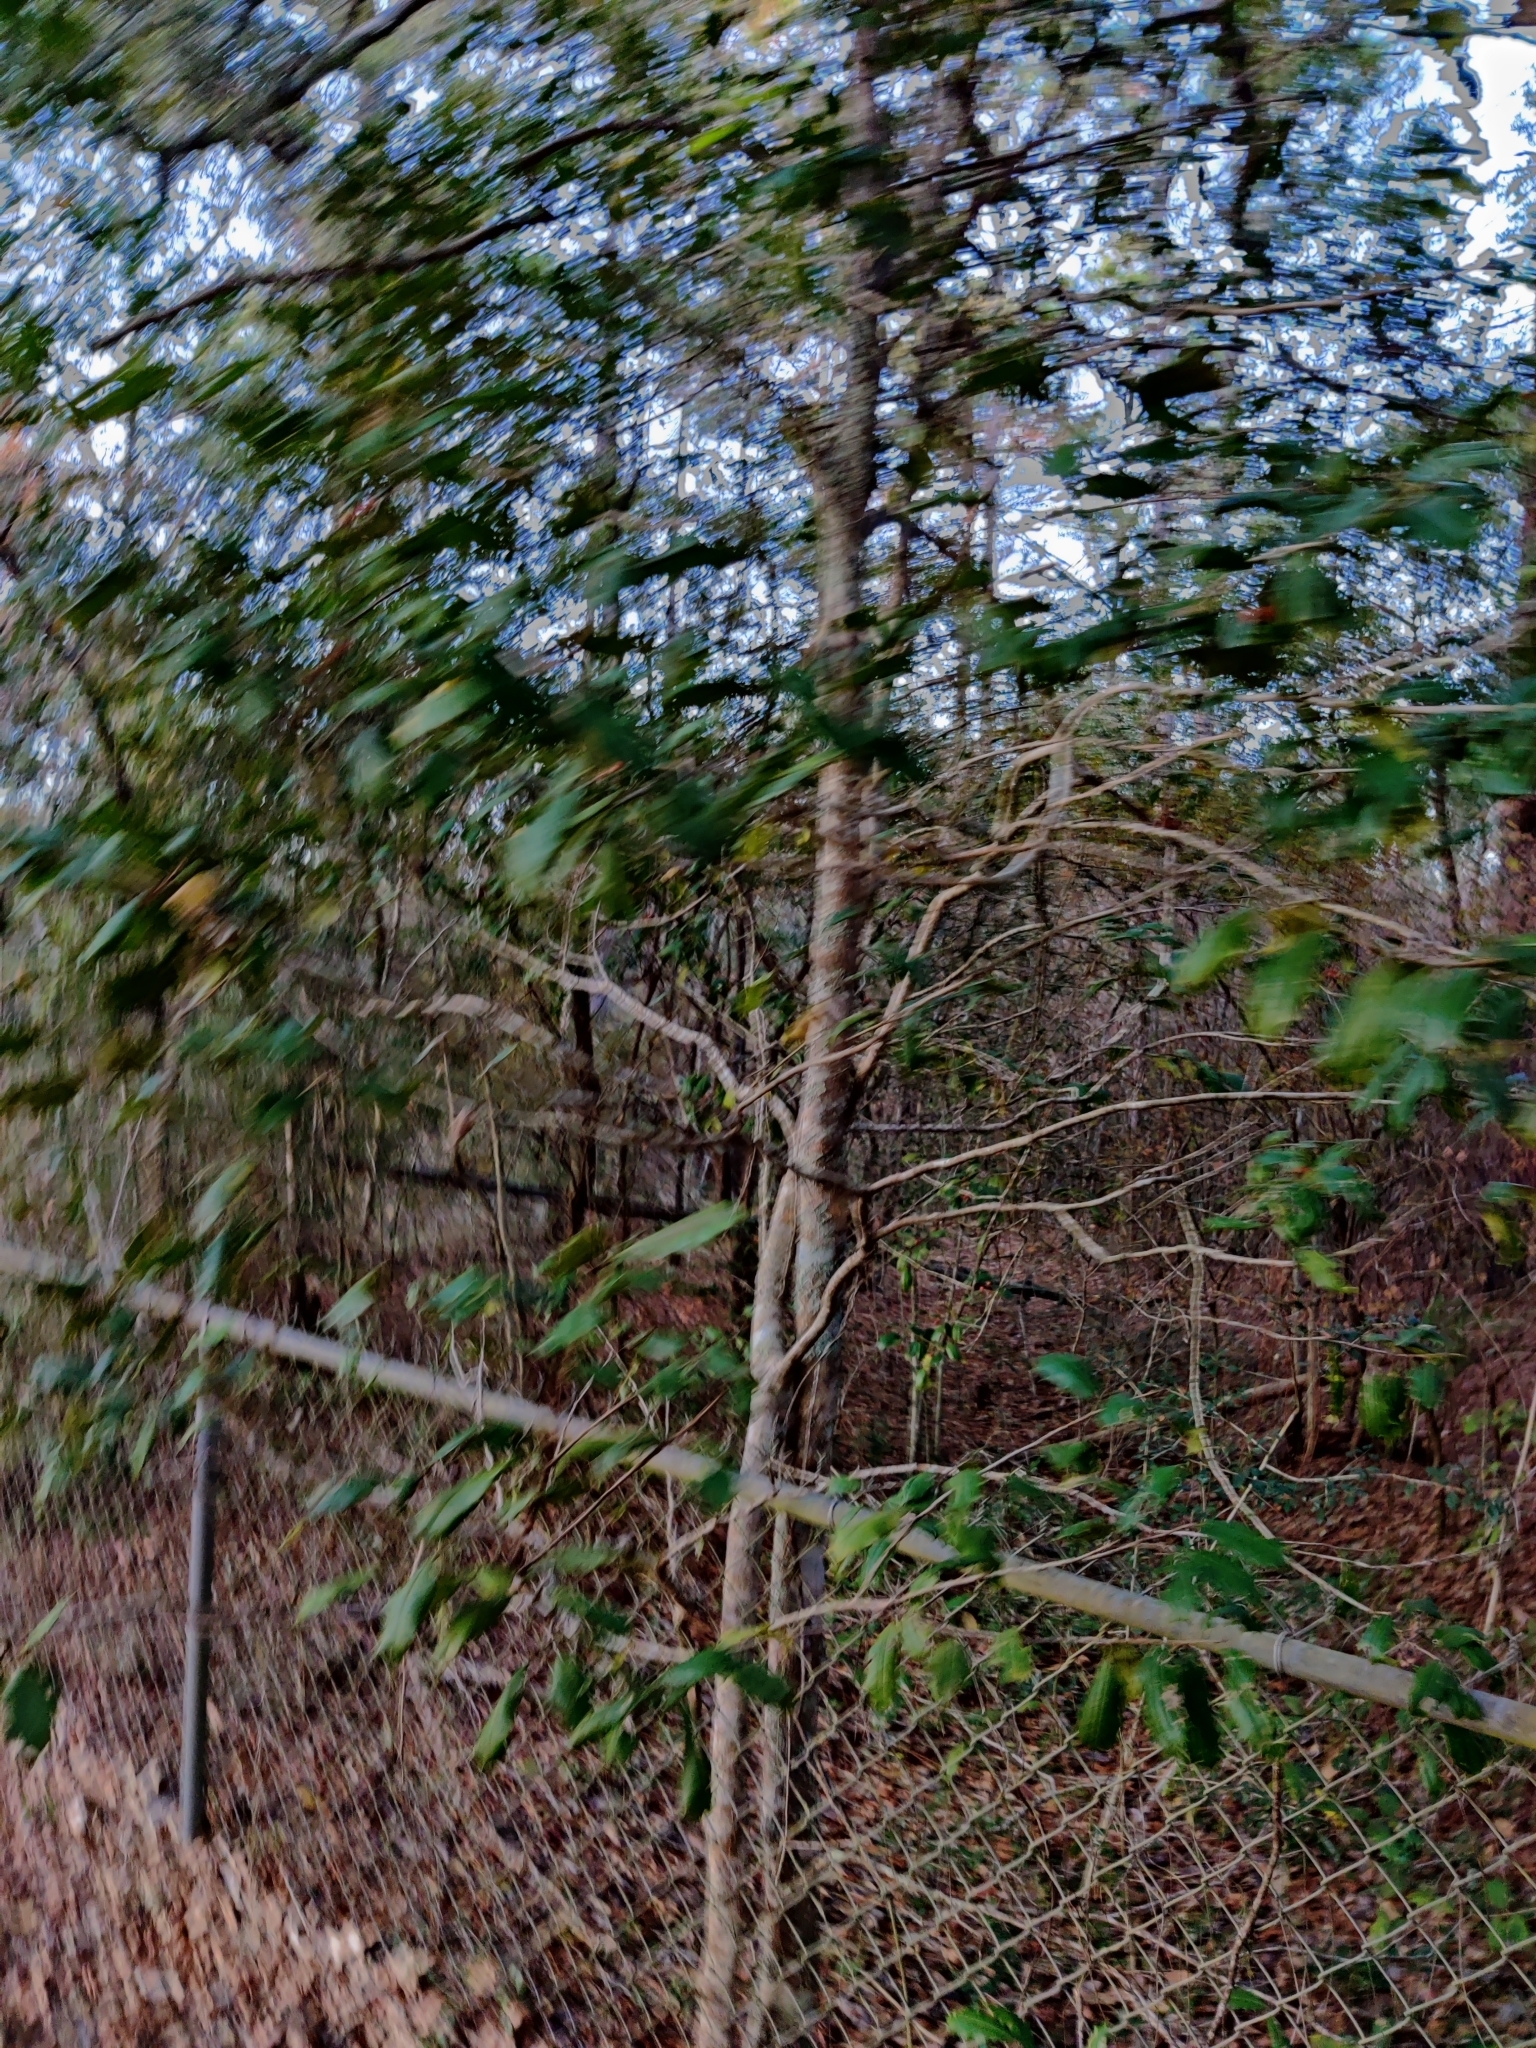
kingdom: Plantae
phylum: Tracheophyta
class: Magnoliopsida
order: Aquifoliales
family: Aquifoliaceae
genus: Ilex
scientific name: Ilex opaca
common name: American holly
